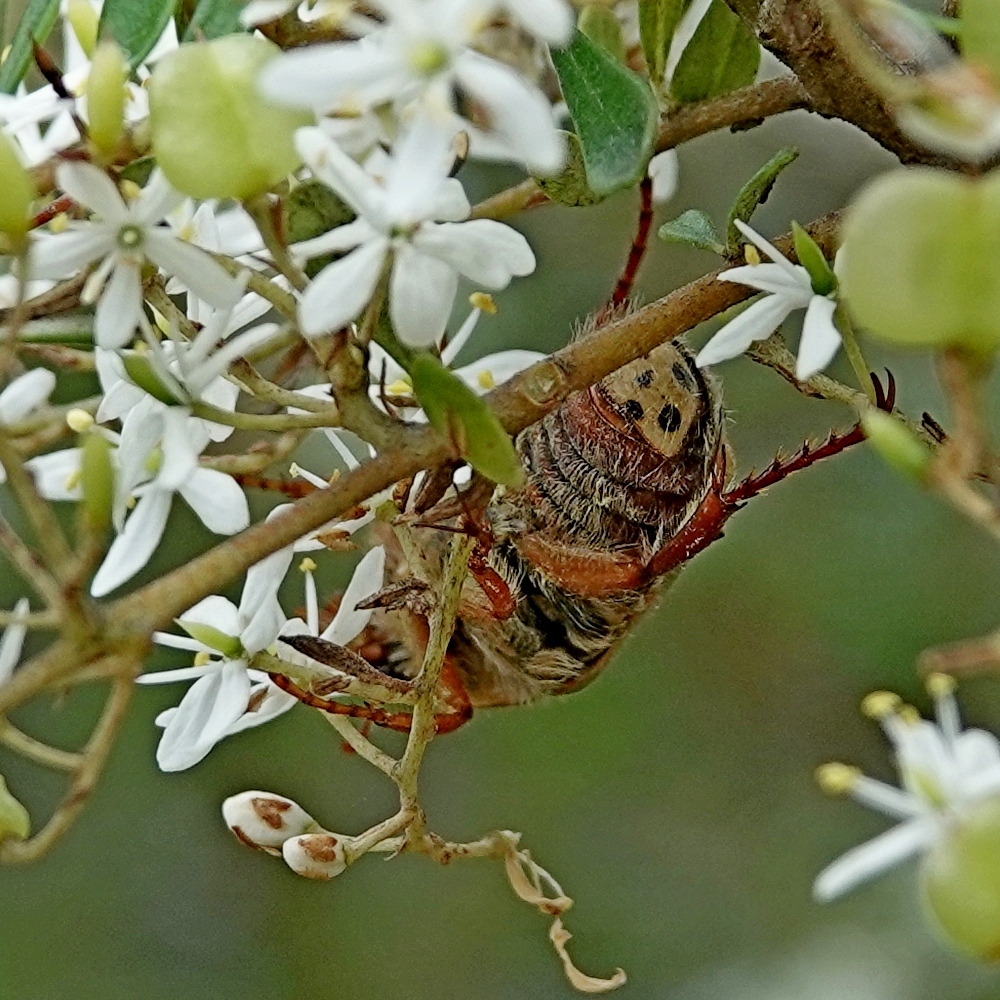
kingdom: Animalia
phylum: Arthropoda
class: Insecta
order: Coleoptera
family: Scarabaeidae
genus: Neorrhina
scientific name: Neorrhina punctatum
